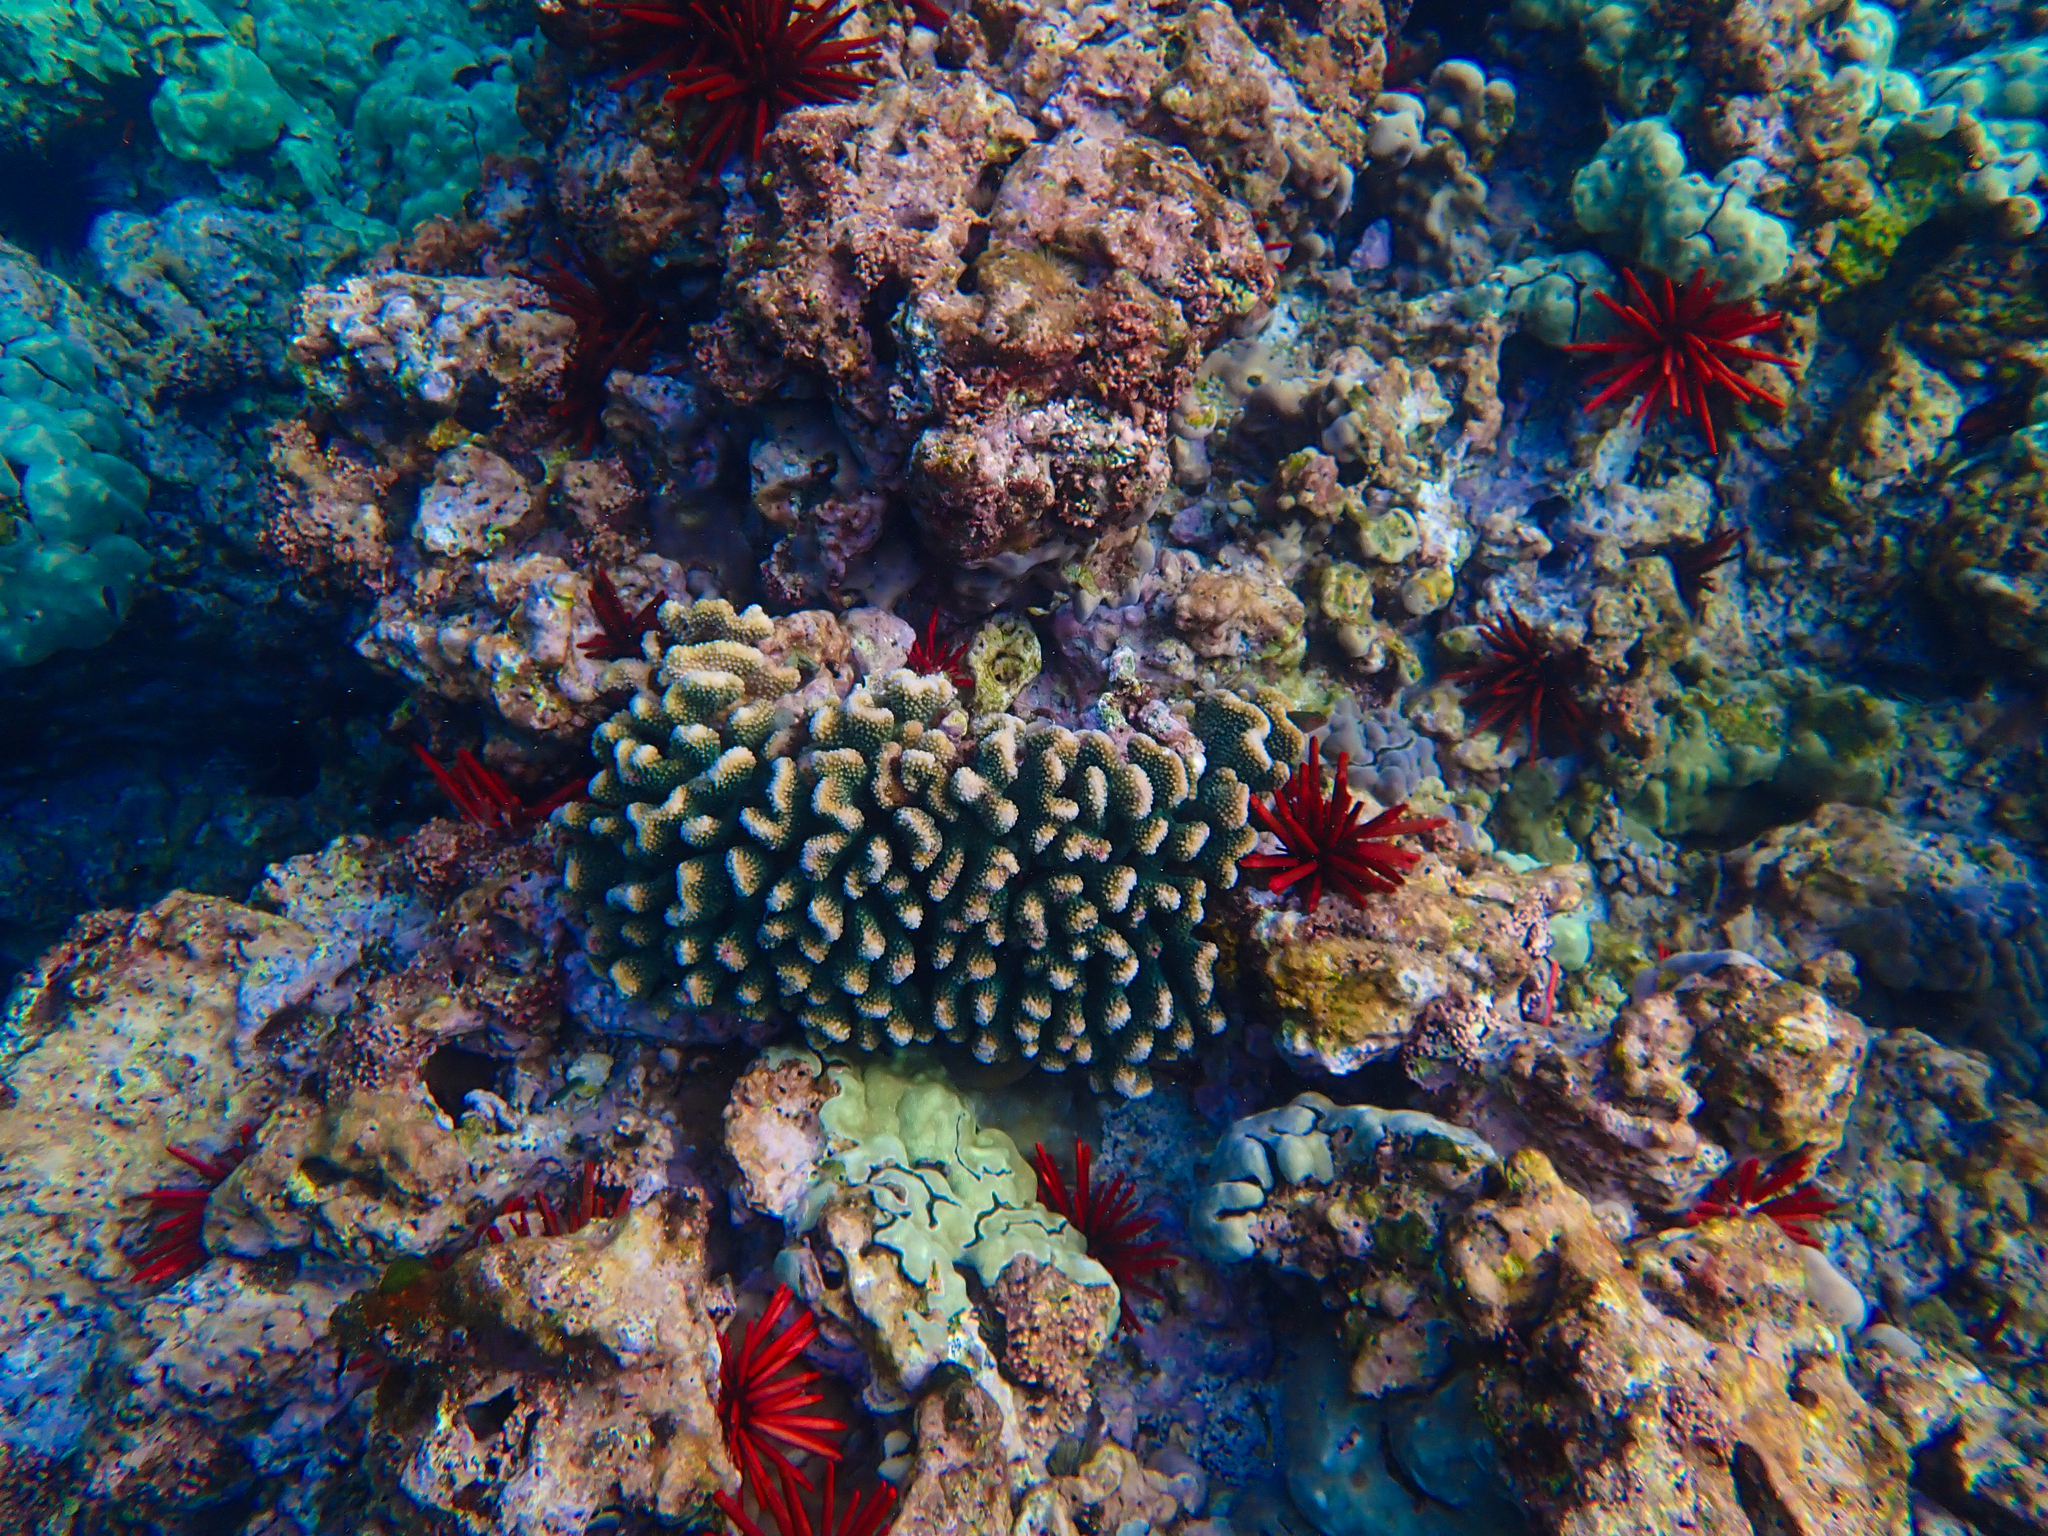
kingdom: Animalia
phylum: Cnidaria
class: Anthozoa
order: Scleractinia
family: Pocilloporidae
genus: Pocillopora
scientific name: Pocillopora meandrina
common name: Cauliflower coral
